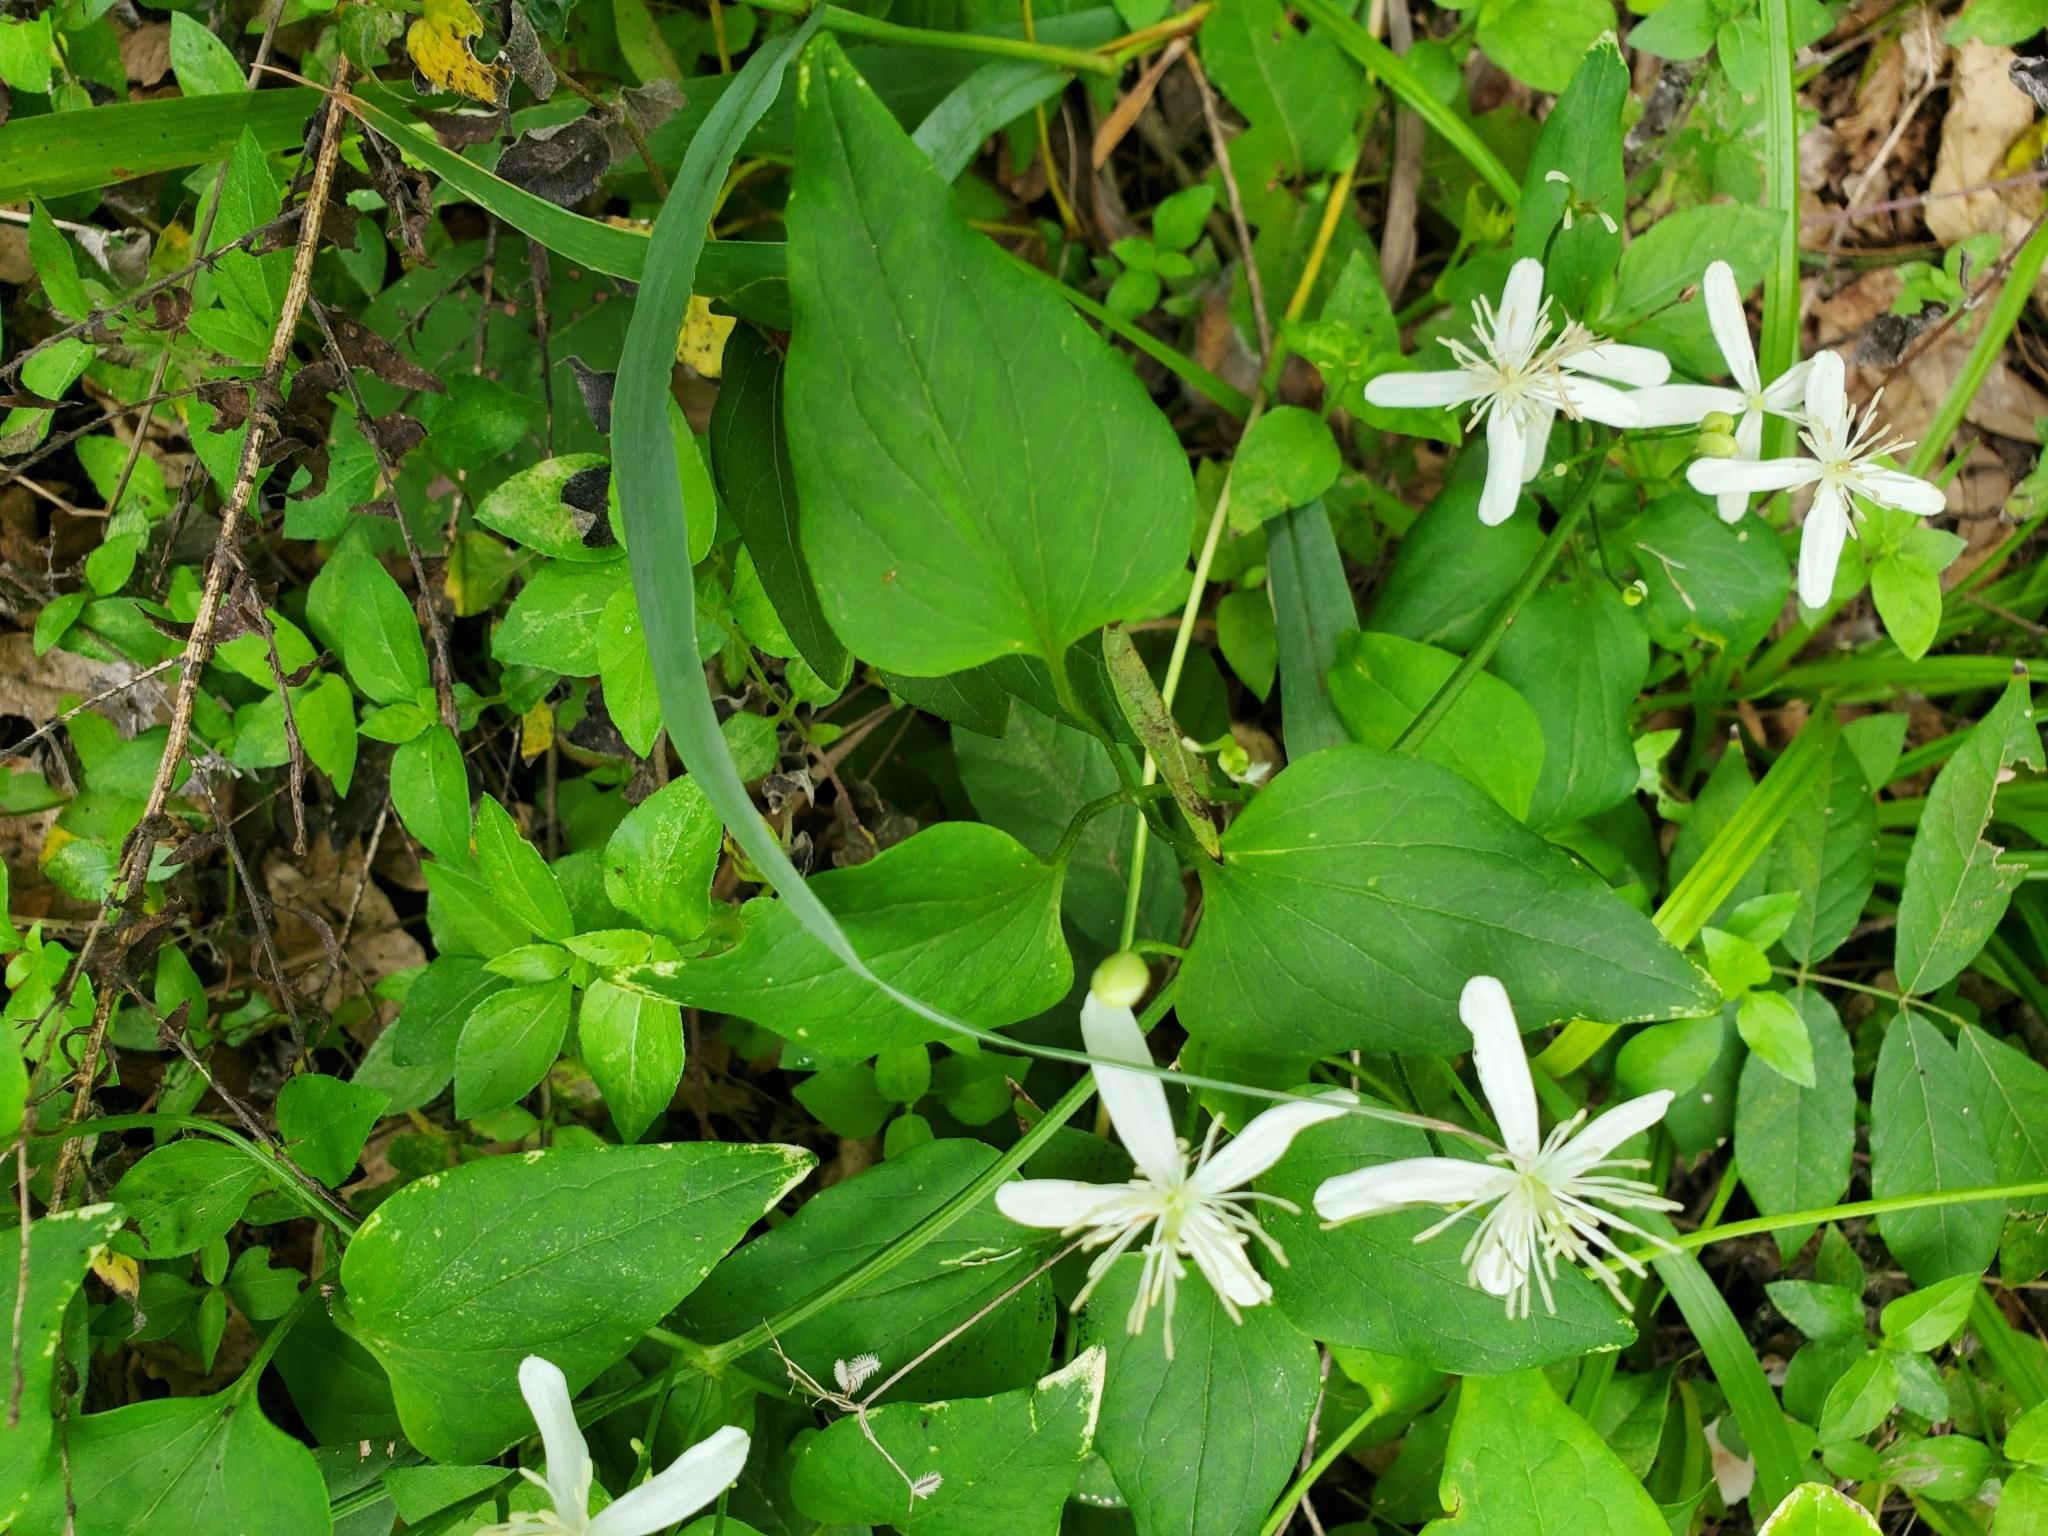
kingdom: Plantae
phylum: Tracheophyta
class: Magnoliopsida
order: Ranunculales
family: Ranunculaceae
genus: Clematis
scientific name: Clematis terniflora
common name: Sweet autumn clematis
